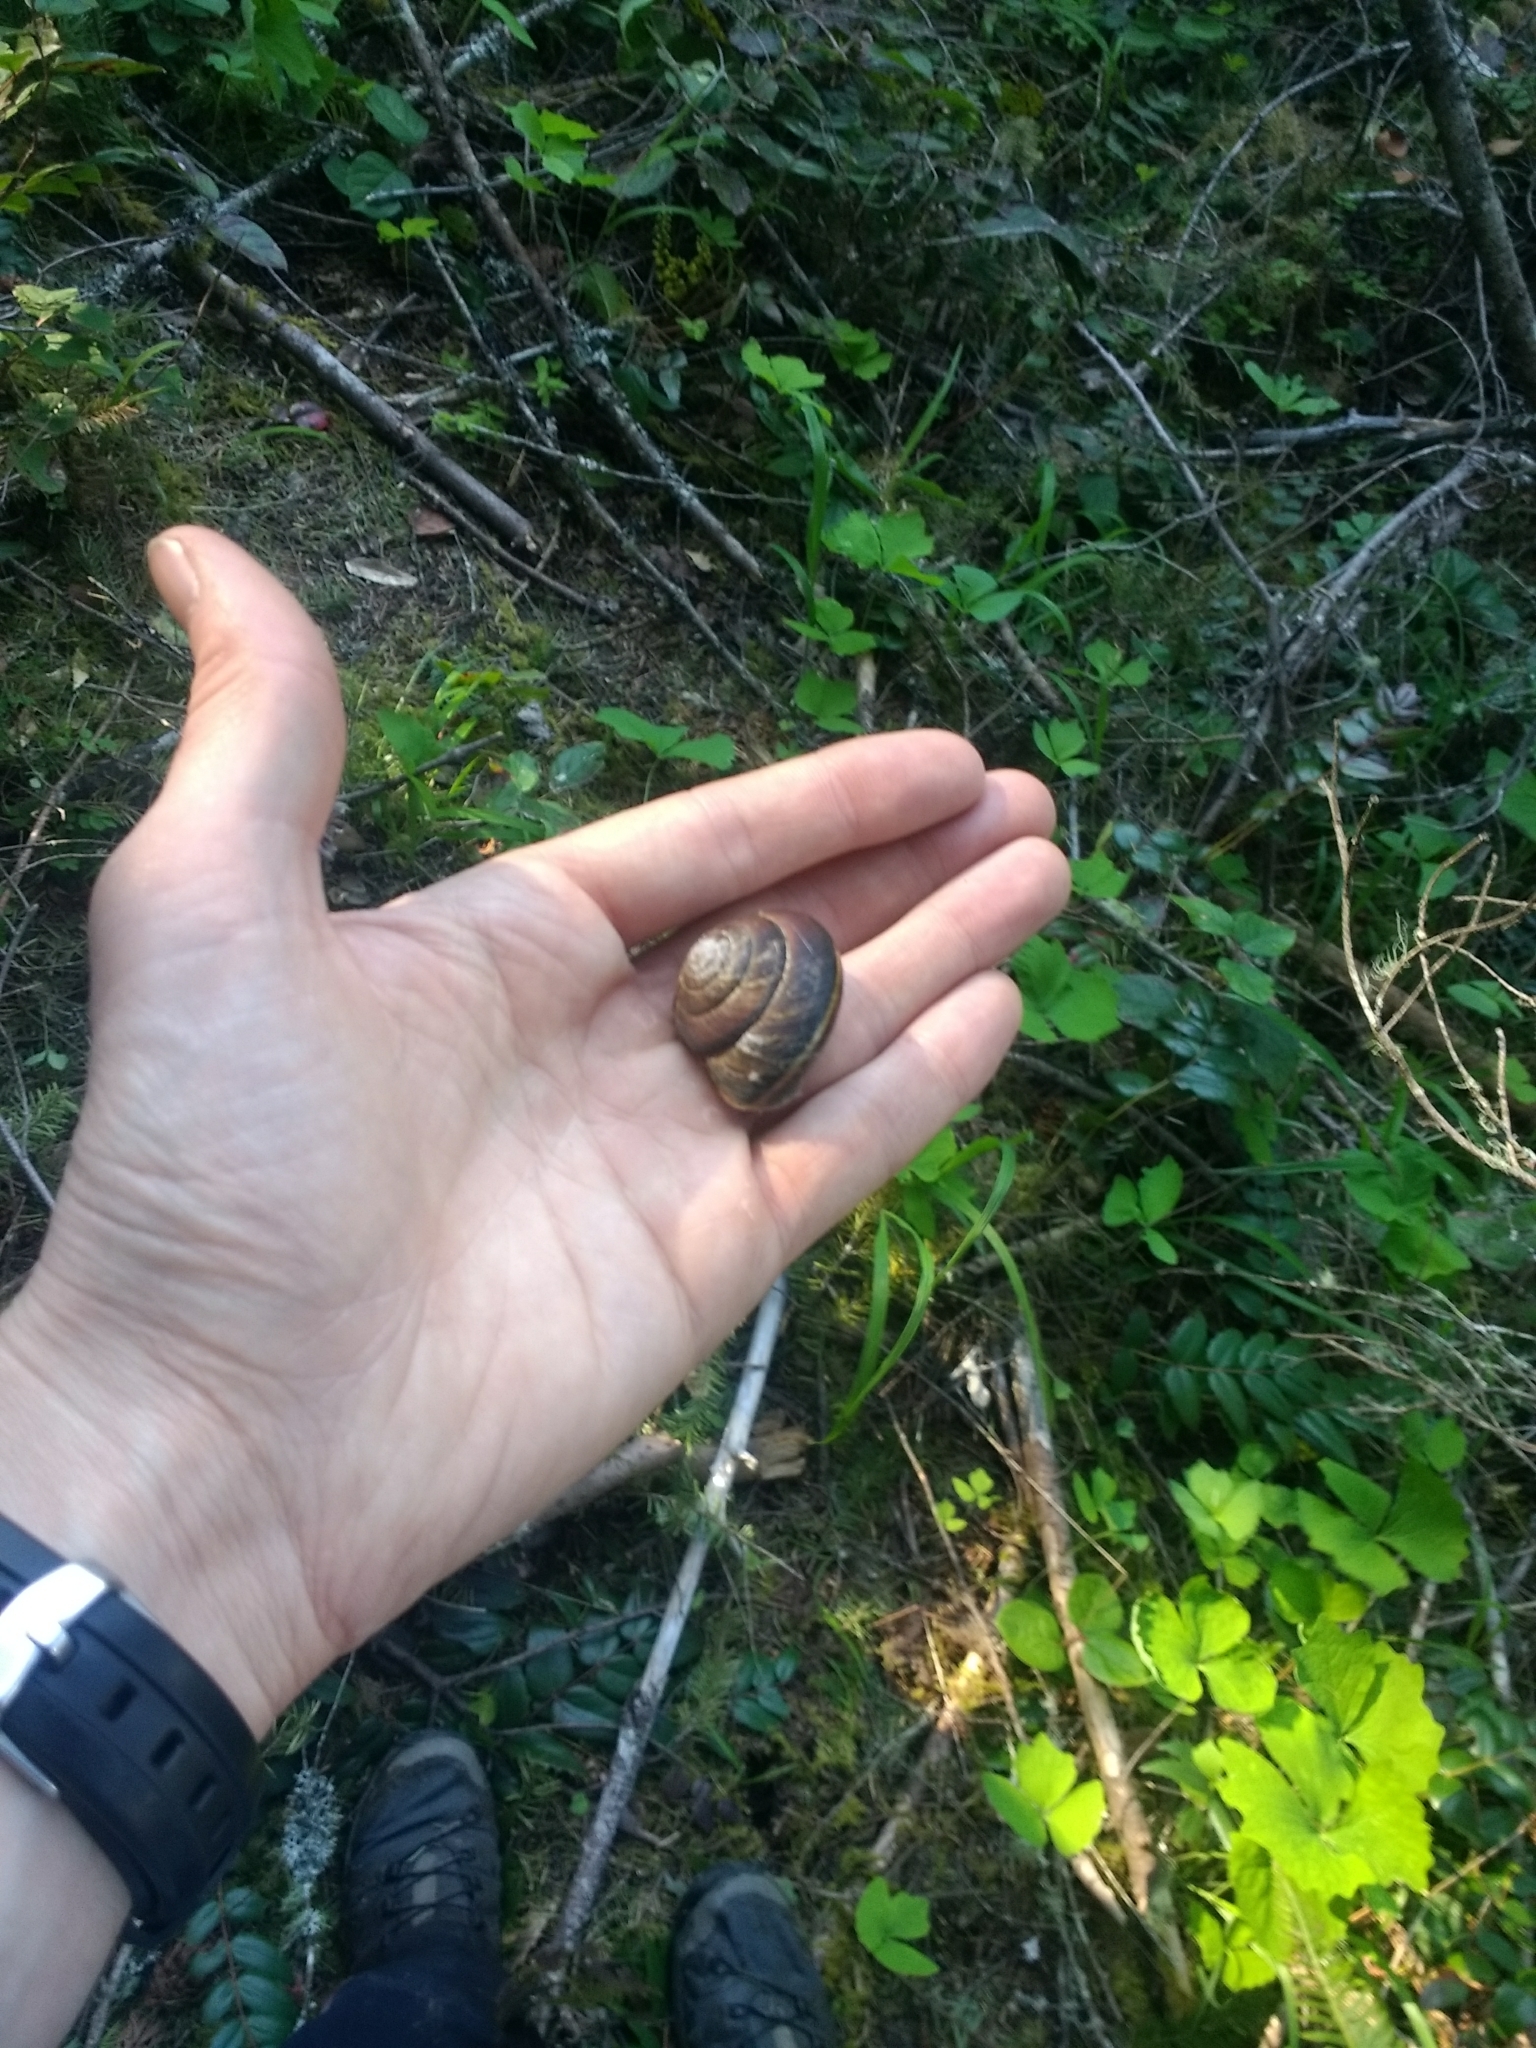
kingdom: Animalia
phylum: Mollusca
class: Gastropoda
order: Stylommatophora
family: Xanthonychidae
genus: Monadenia
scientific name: Monadenia fidelis
